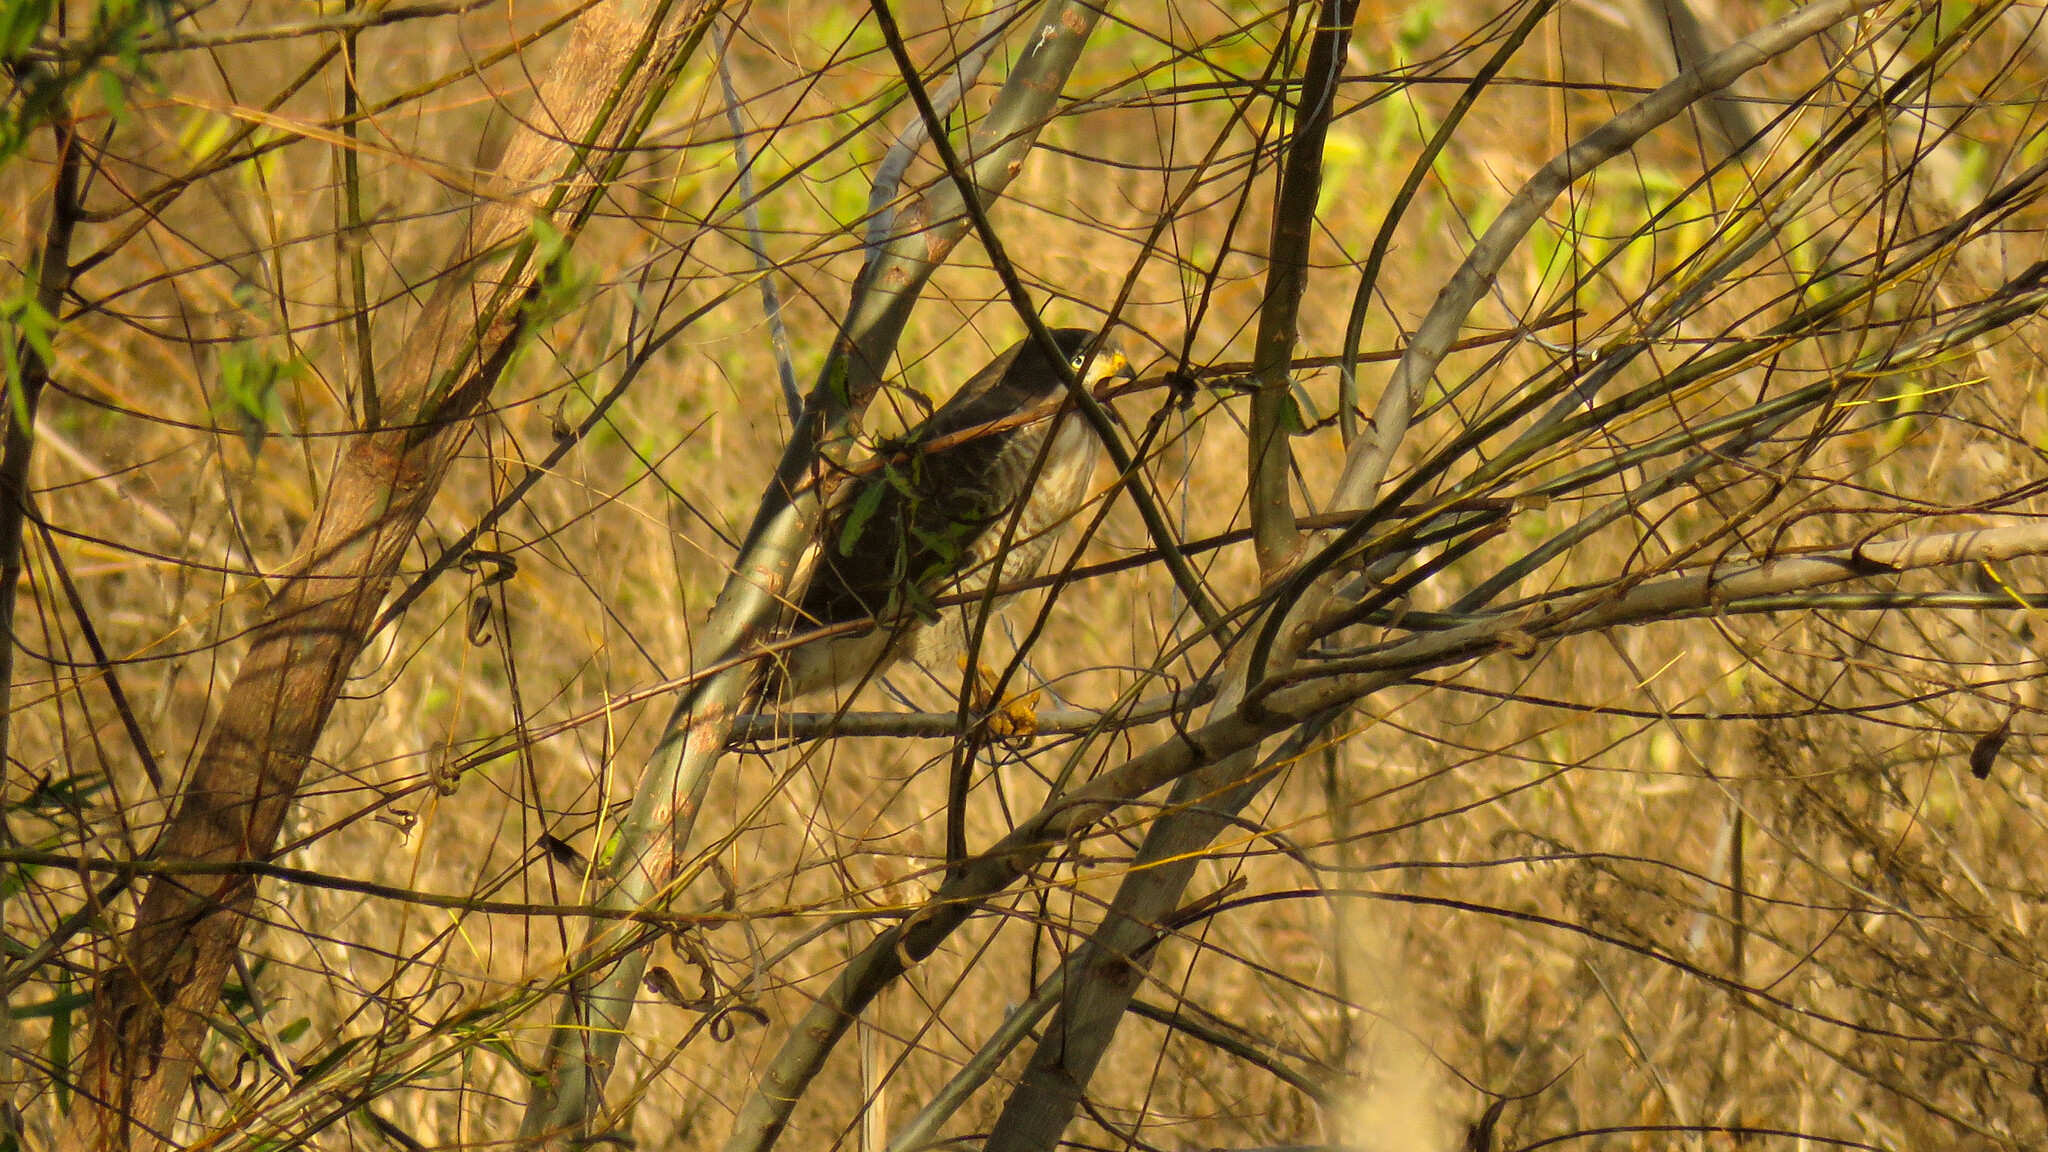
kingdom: Animalia
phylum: Chordata
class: Aves
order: Accipitriformes
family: Accipitridae
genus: Rupornis
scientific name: Rupornis magnirostris
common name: Roadside hawk
